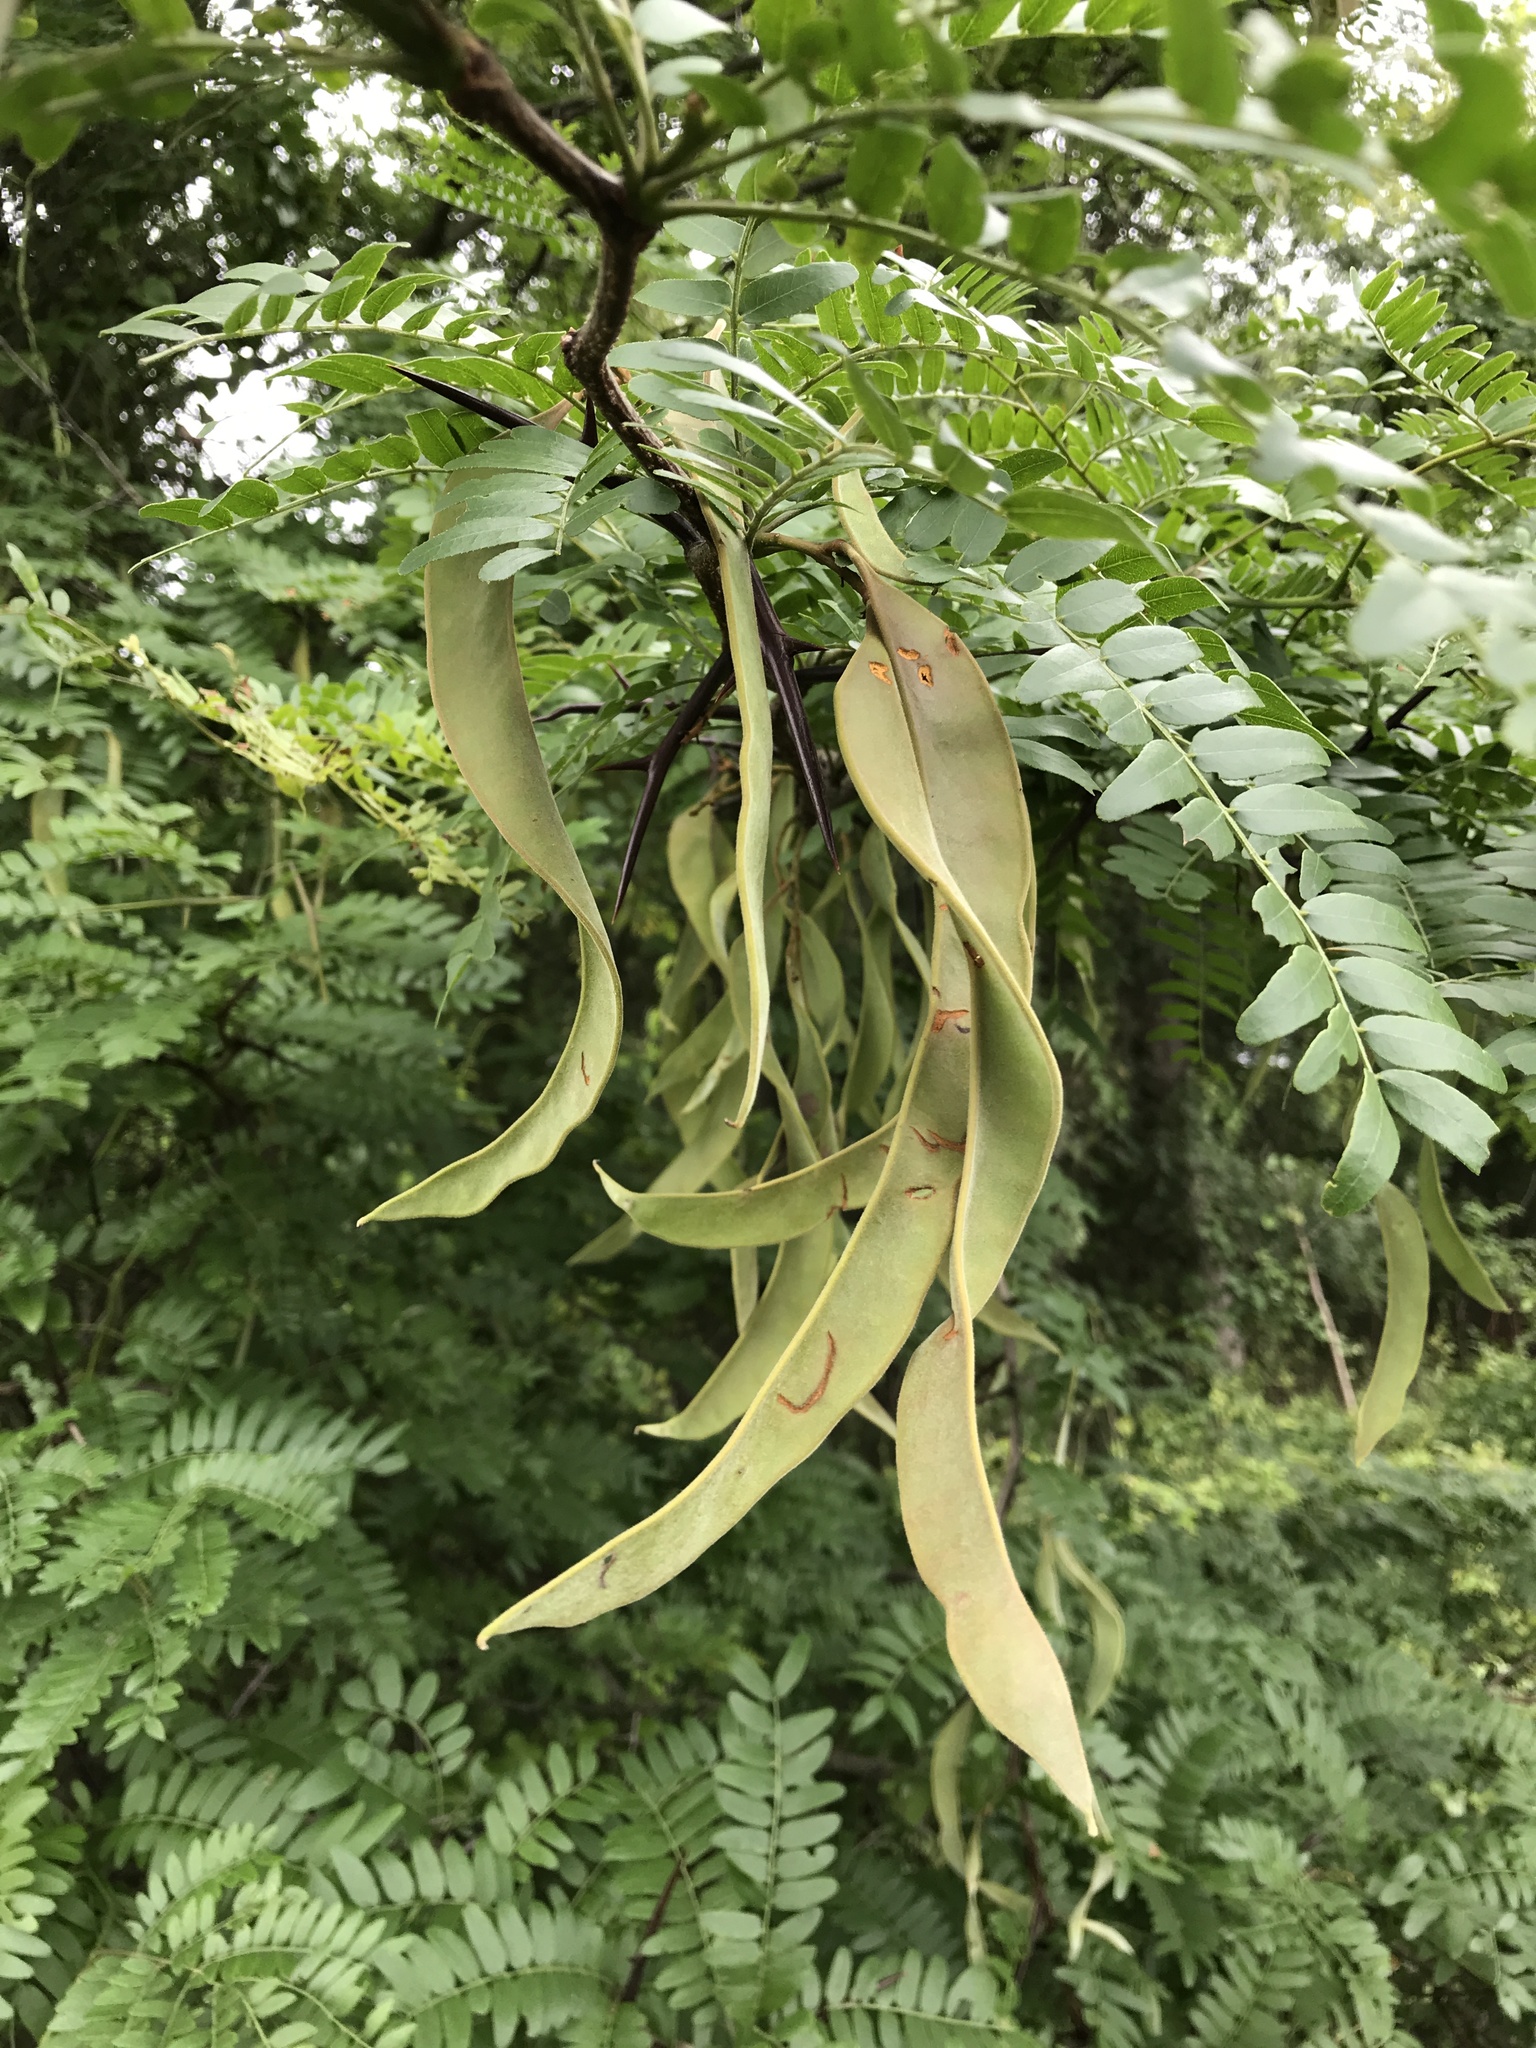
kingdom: Plantae
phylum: Tracheophyta
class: Magnoliopsida
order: Fabales
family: Fabaceae
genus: Gleditsia
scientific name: Gleditsia triacanthos
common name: Common honeylocust
